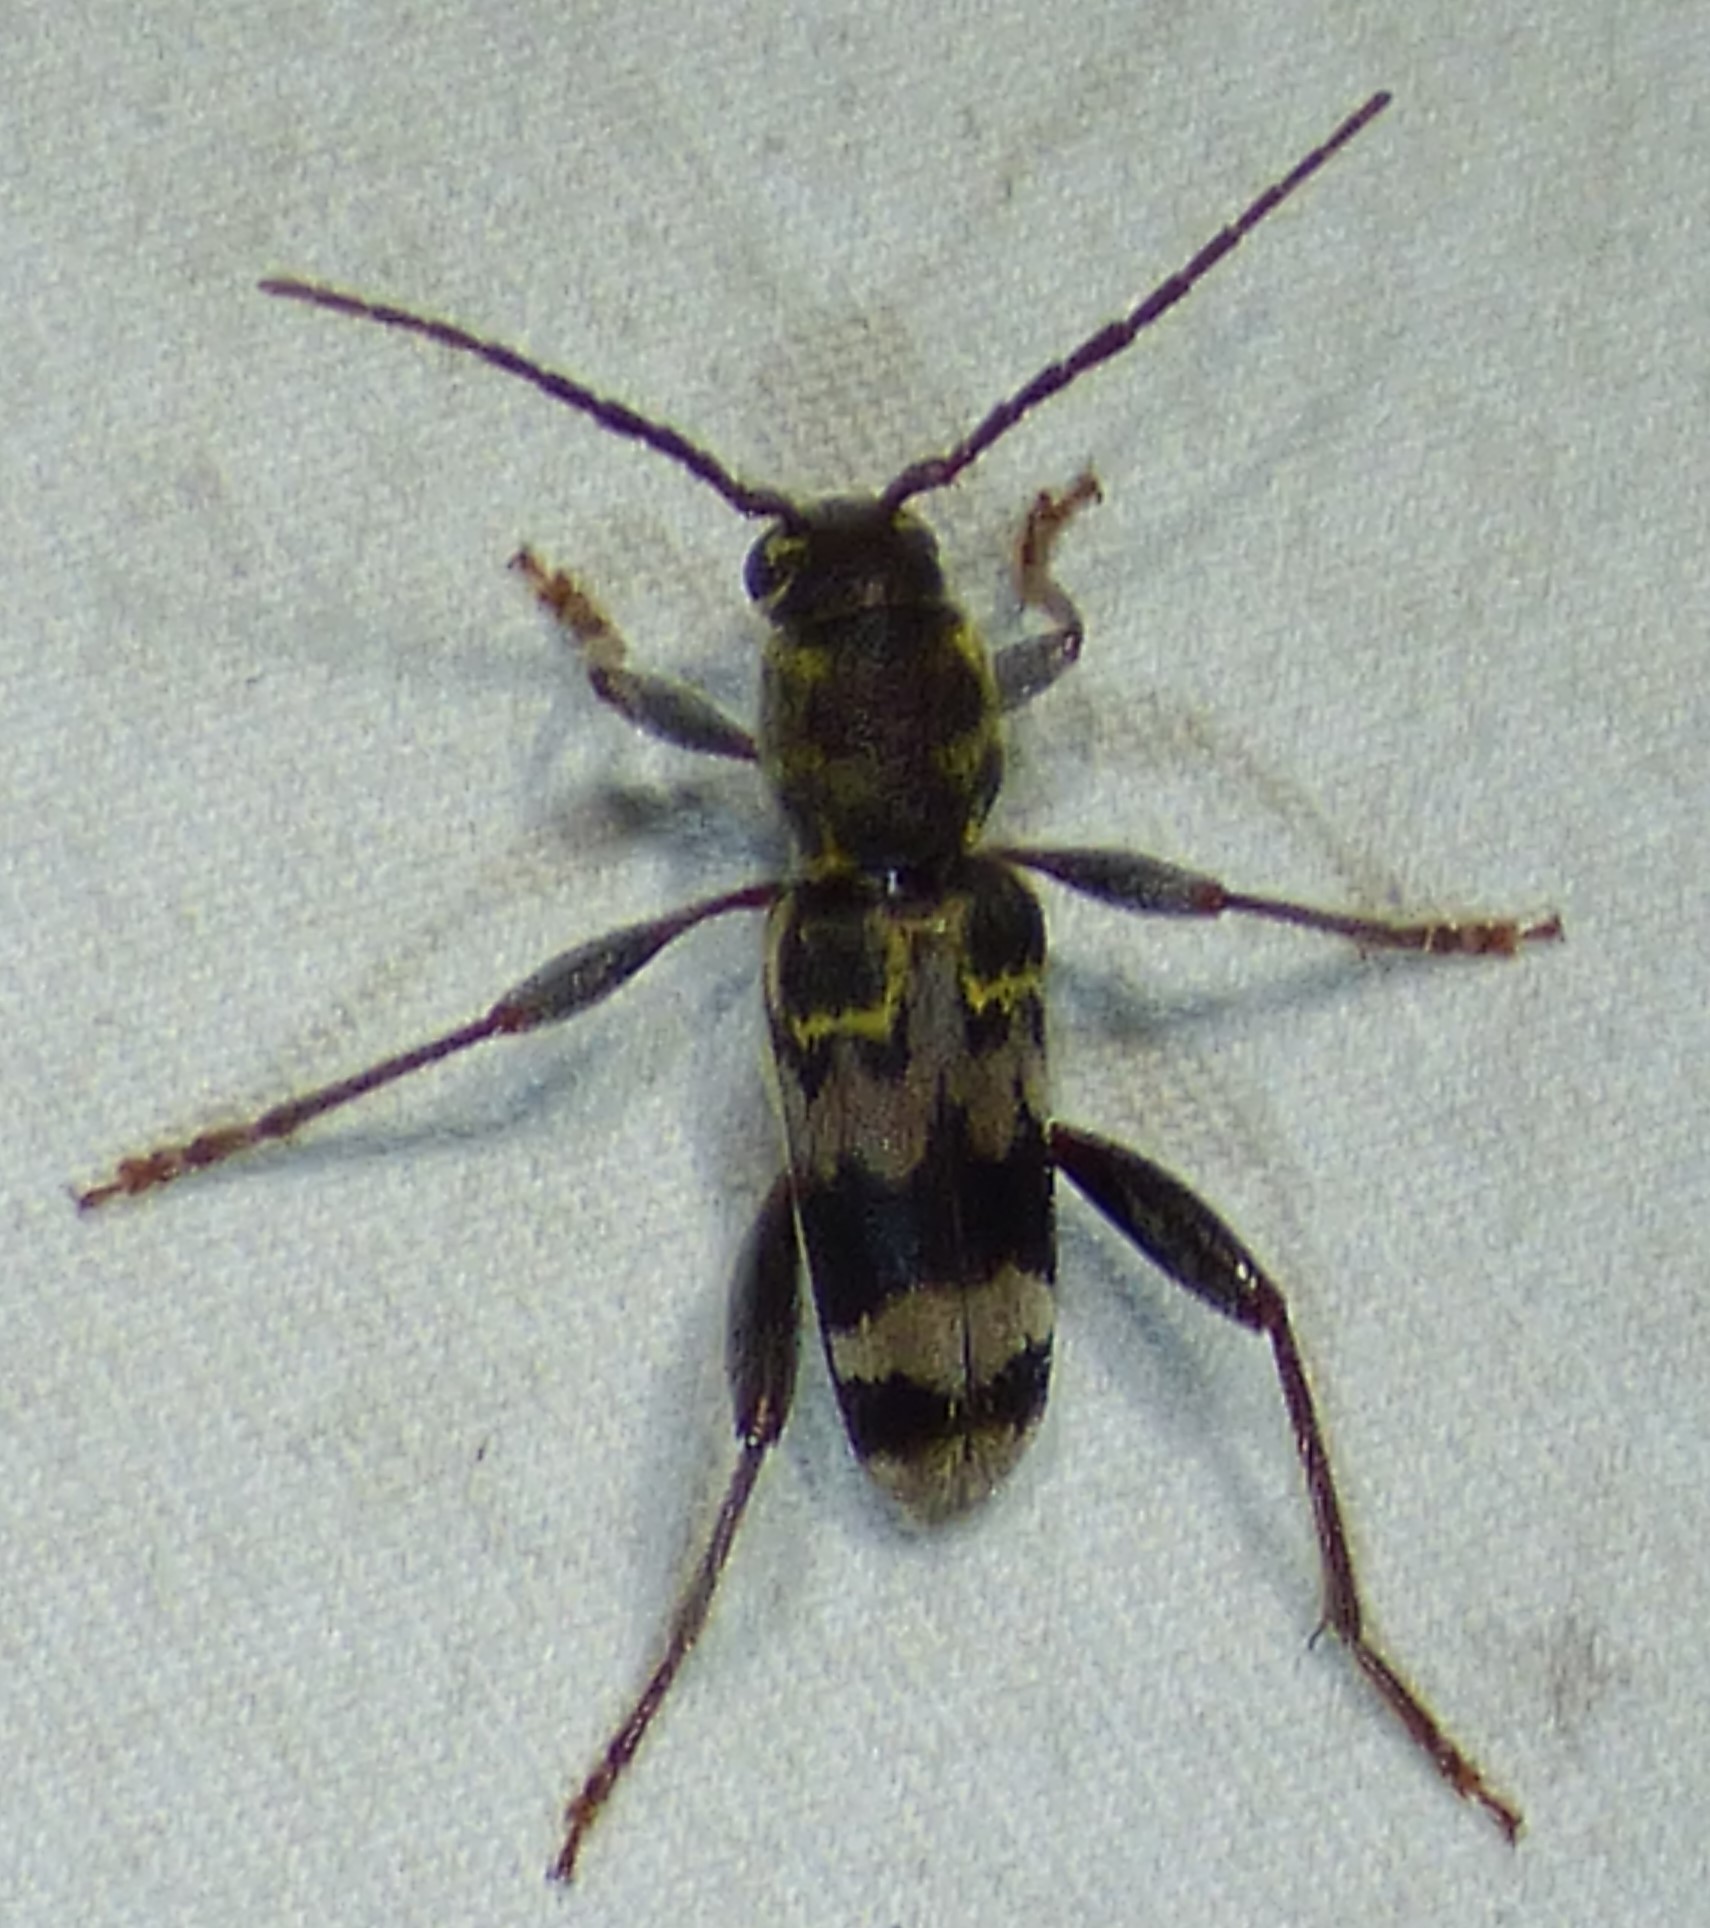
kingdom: Animalia
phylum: Arthropoda
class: Insecta
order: Coleoptera
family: Cerambycidae
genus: Xylotrechus
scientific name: Xylotrechus colonus
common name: Long-horned beetle
